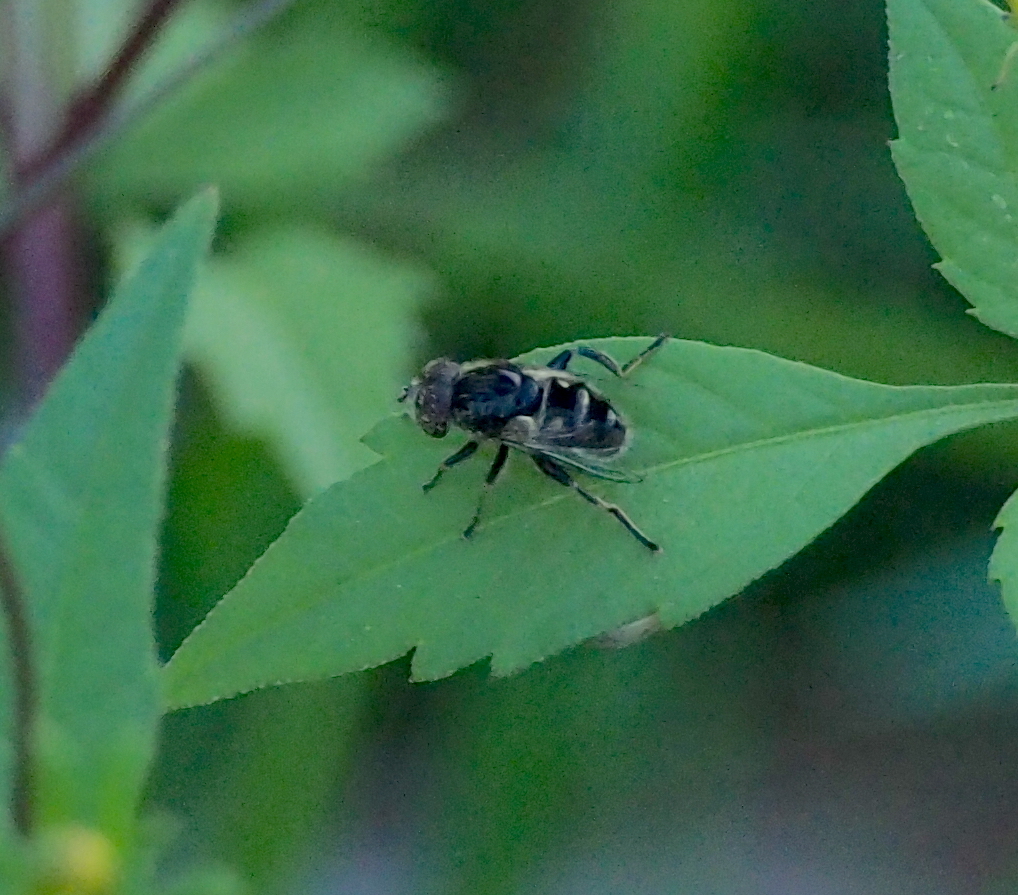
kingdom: Animalia
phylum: Arthropoda
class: Insecta
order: Diptera
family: Syrphidae
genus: Eristalinus
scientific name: Eristalinus sepulchralis
